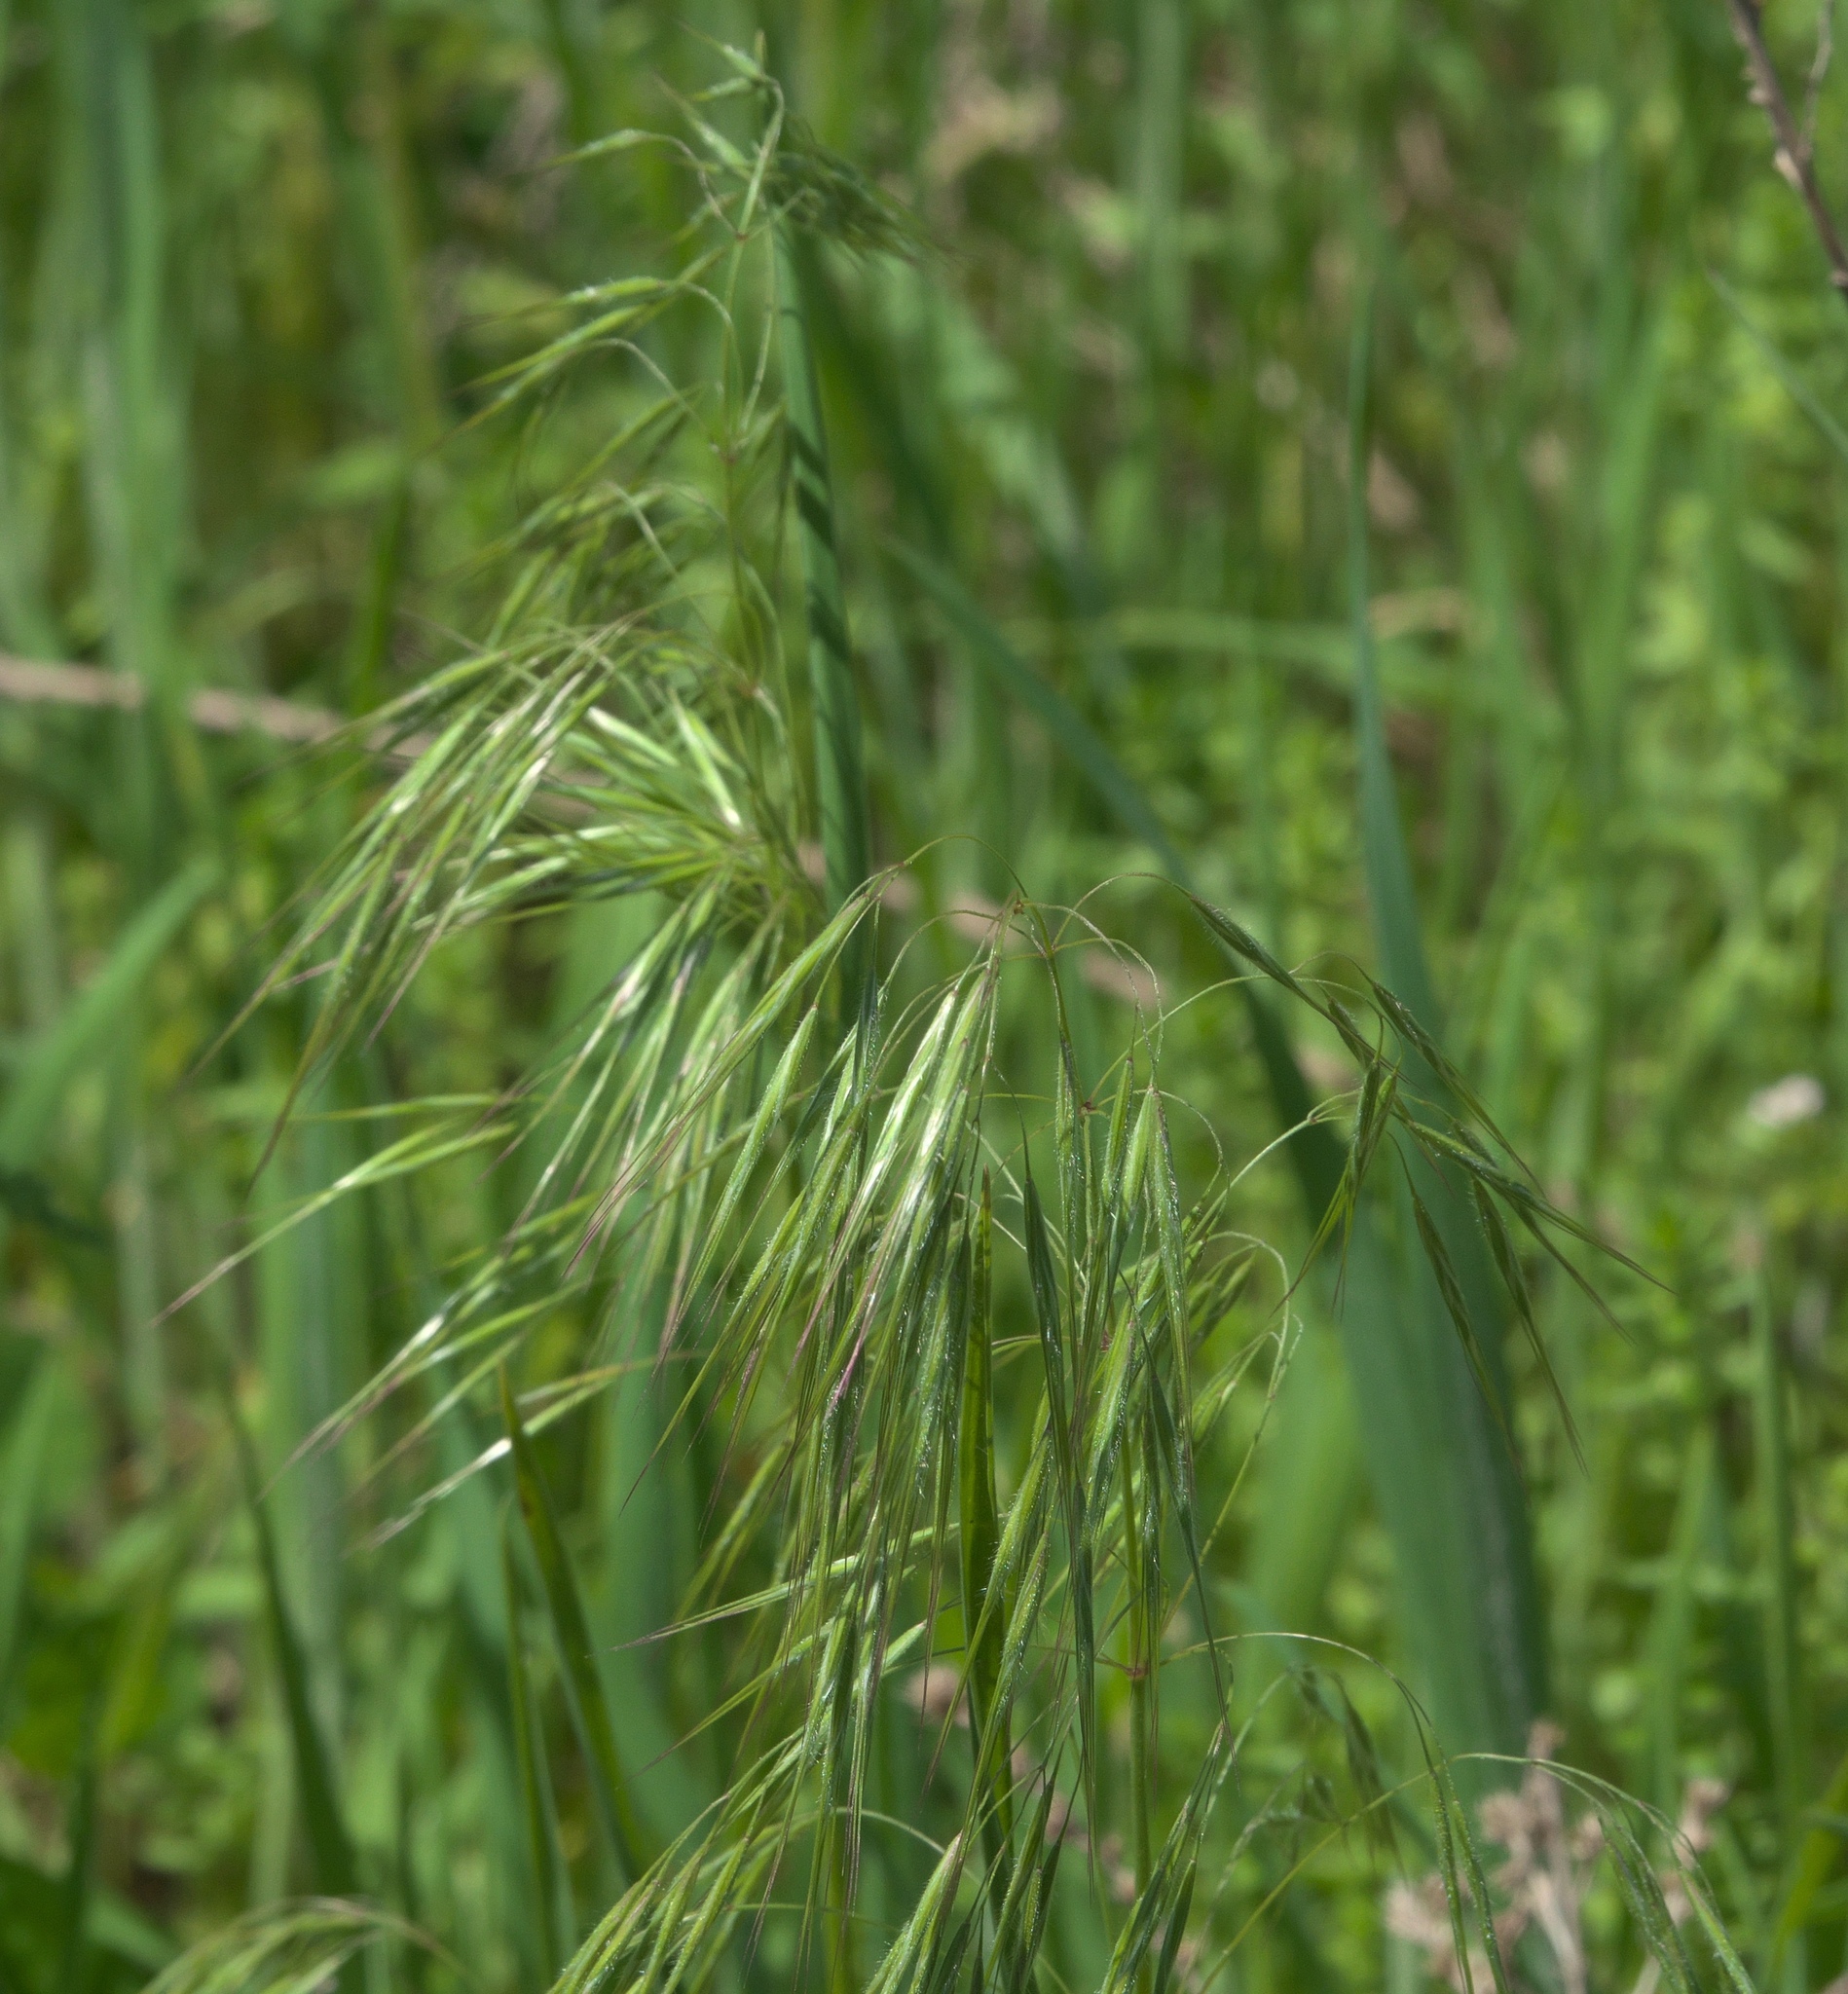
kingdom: Plantae
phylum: Tracheophyta
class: Liliopsida
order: Poales
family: Poaceae
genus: Bromus
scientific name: Bromus tectorum
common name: Cheatgrass
